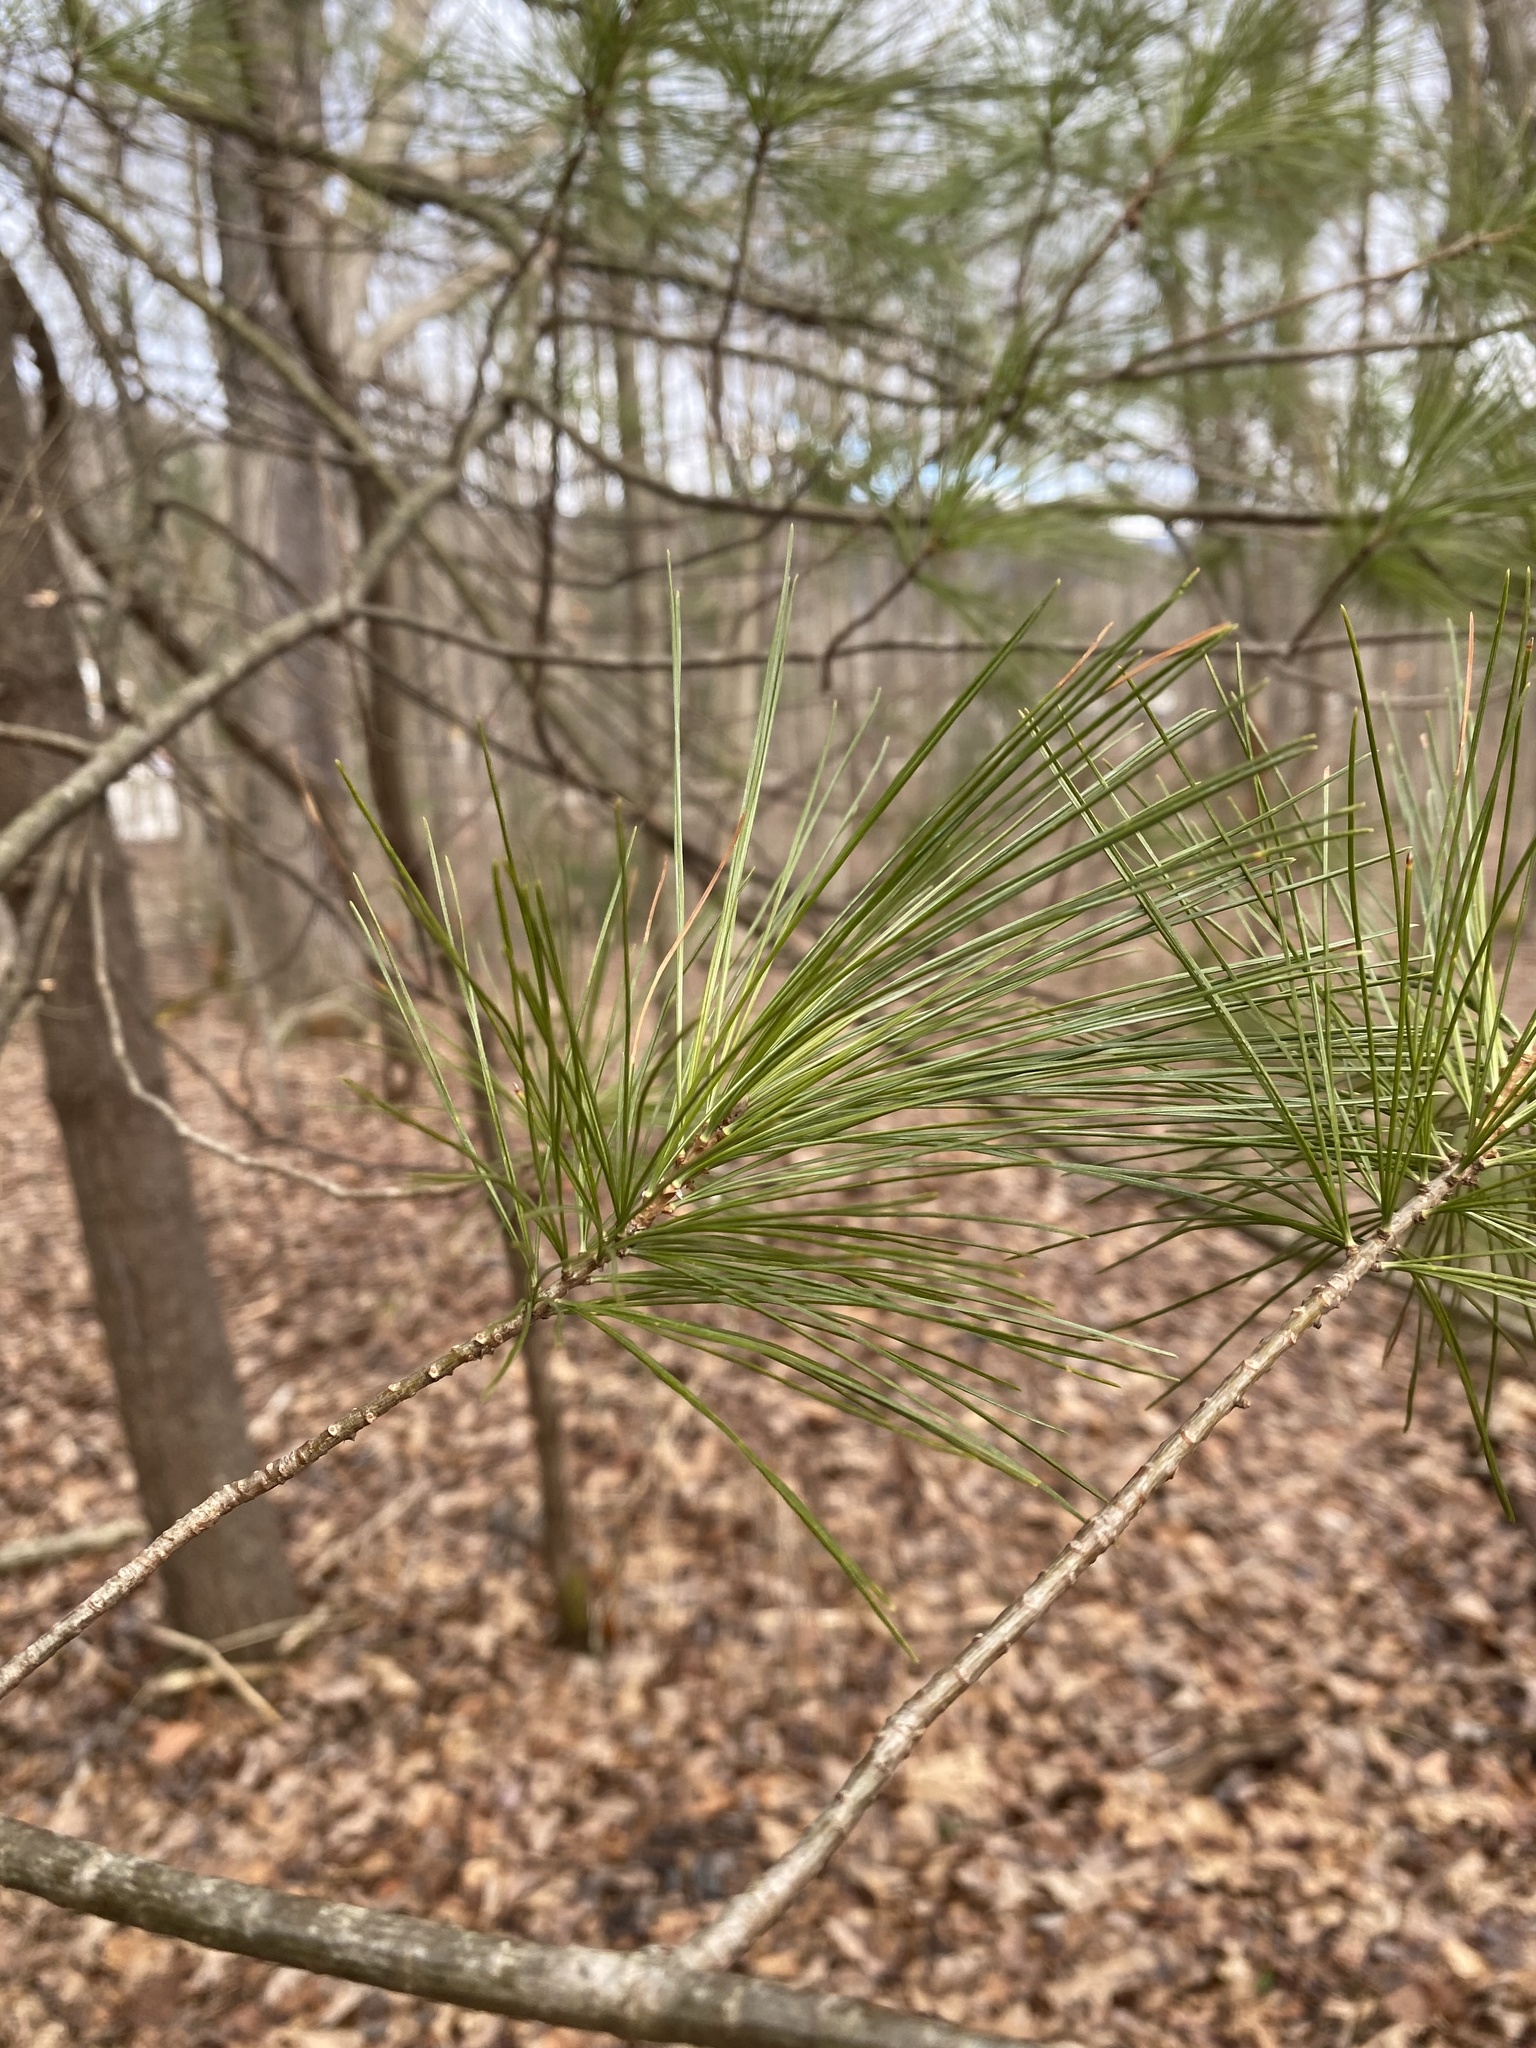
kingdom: Plantae
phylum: Tracheophyta
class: Pinopsida
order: Pinales
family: Pinaceae
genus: Pinus
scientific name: Pinus strobus
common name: Weymouth pine
